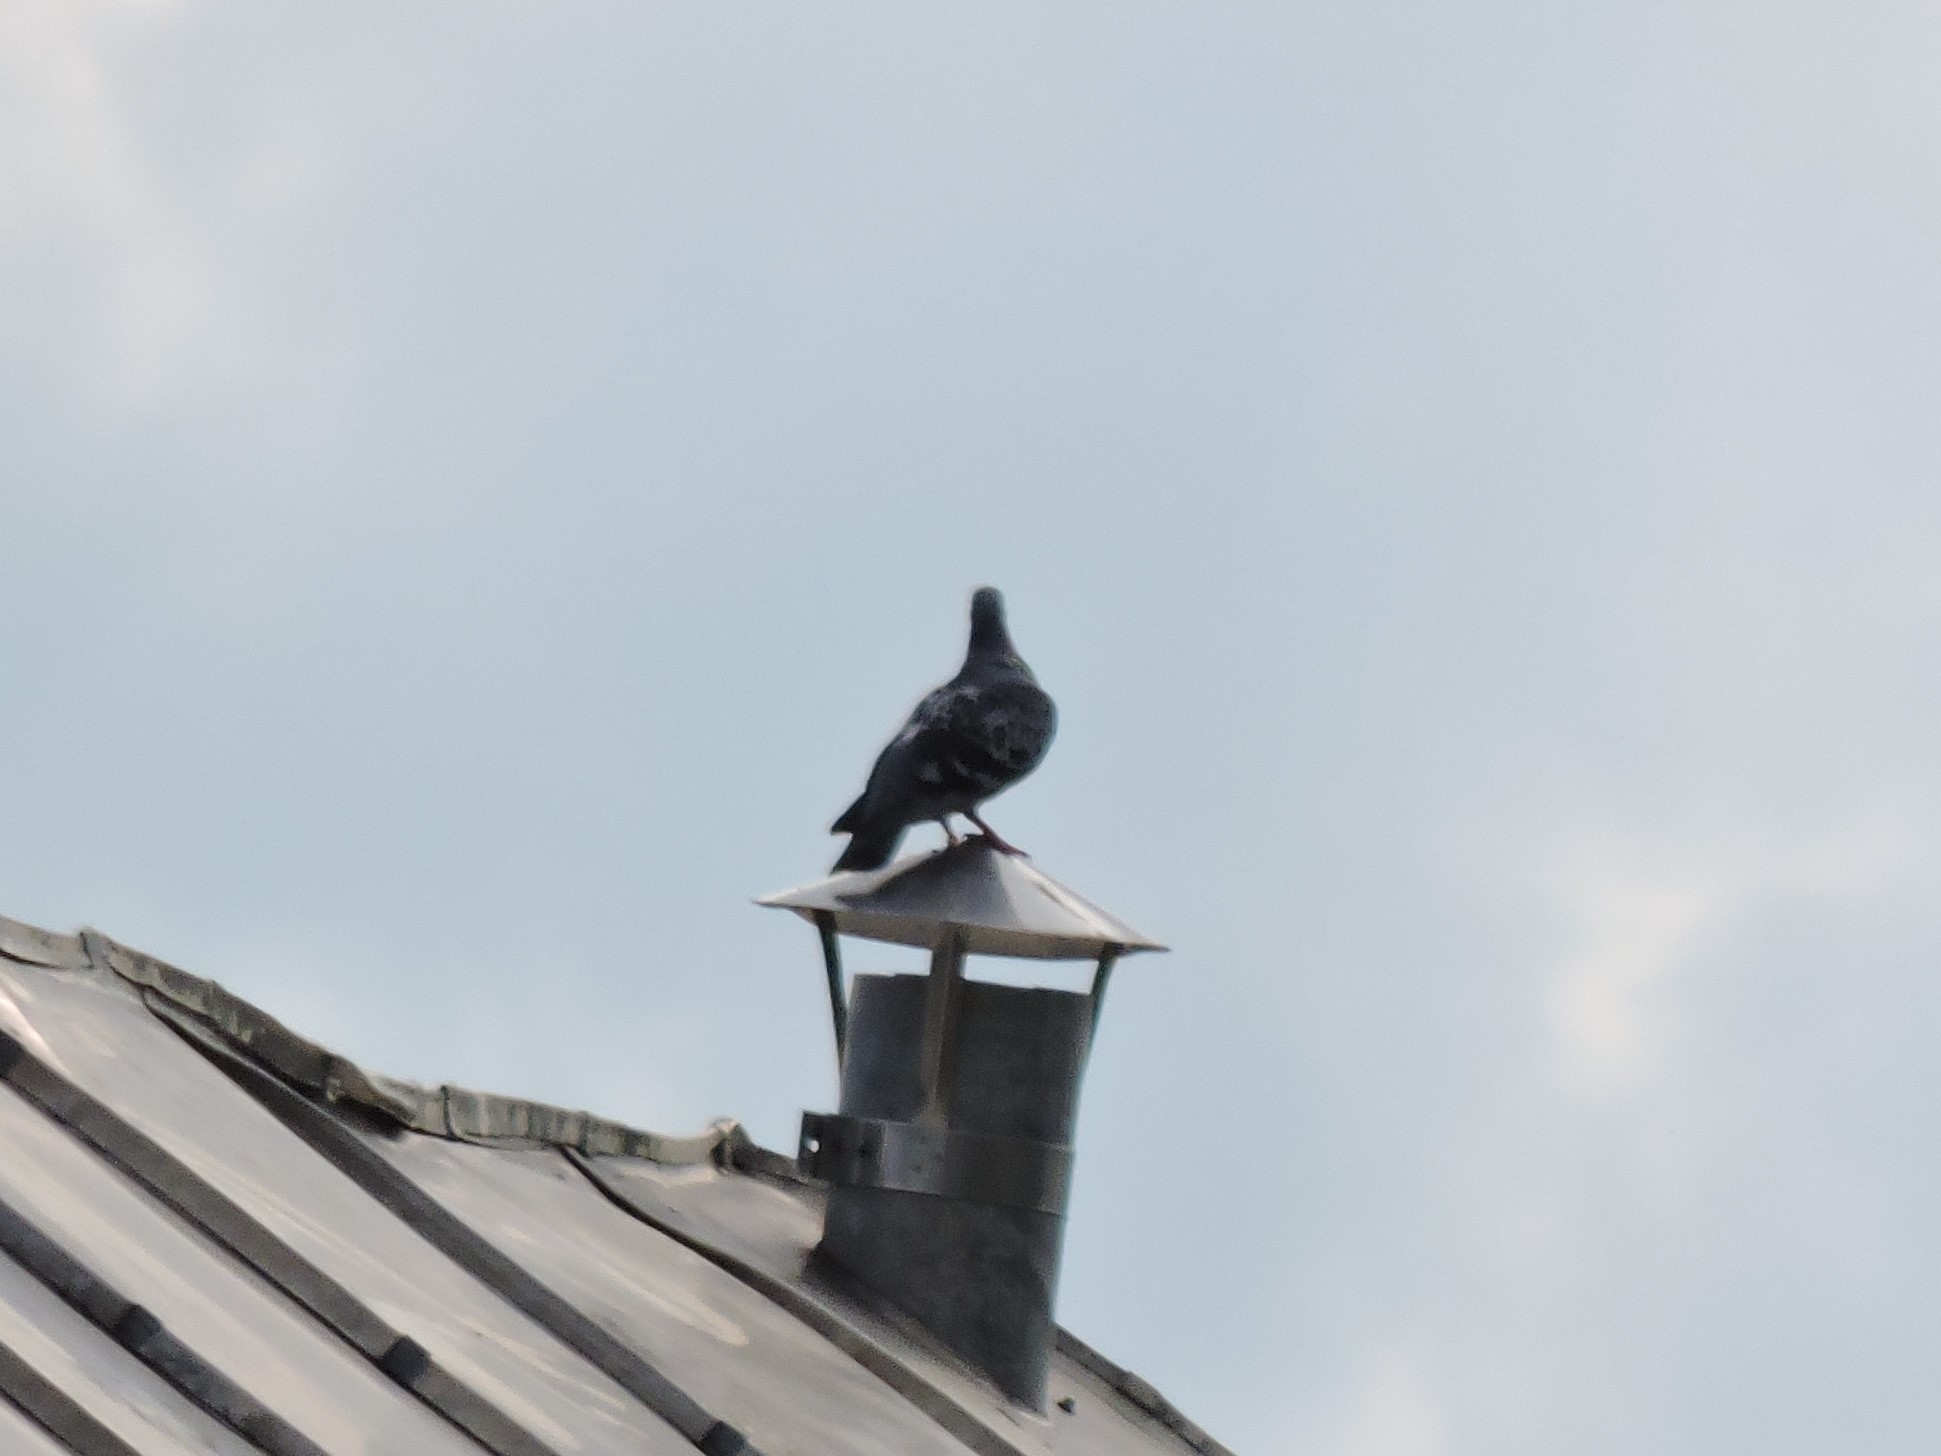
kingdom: Animalia
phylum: Chordata
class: Aves
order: Columbiformes
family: Columbidae
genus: Columba
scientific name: Columba livia
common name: Rock pigeon
